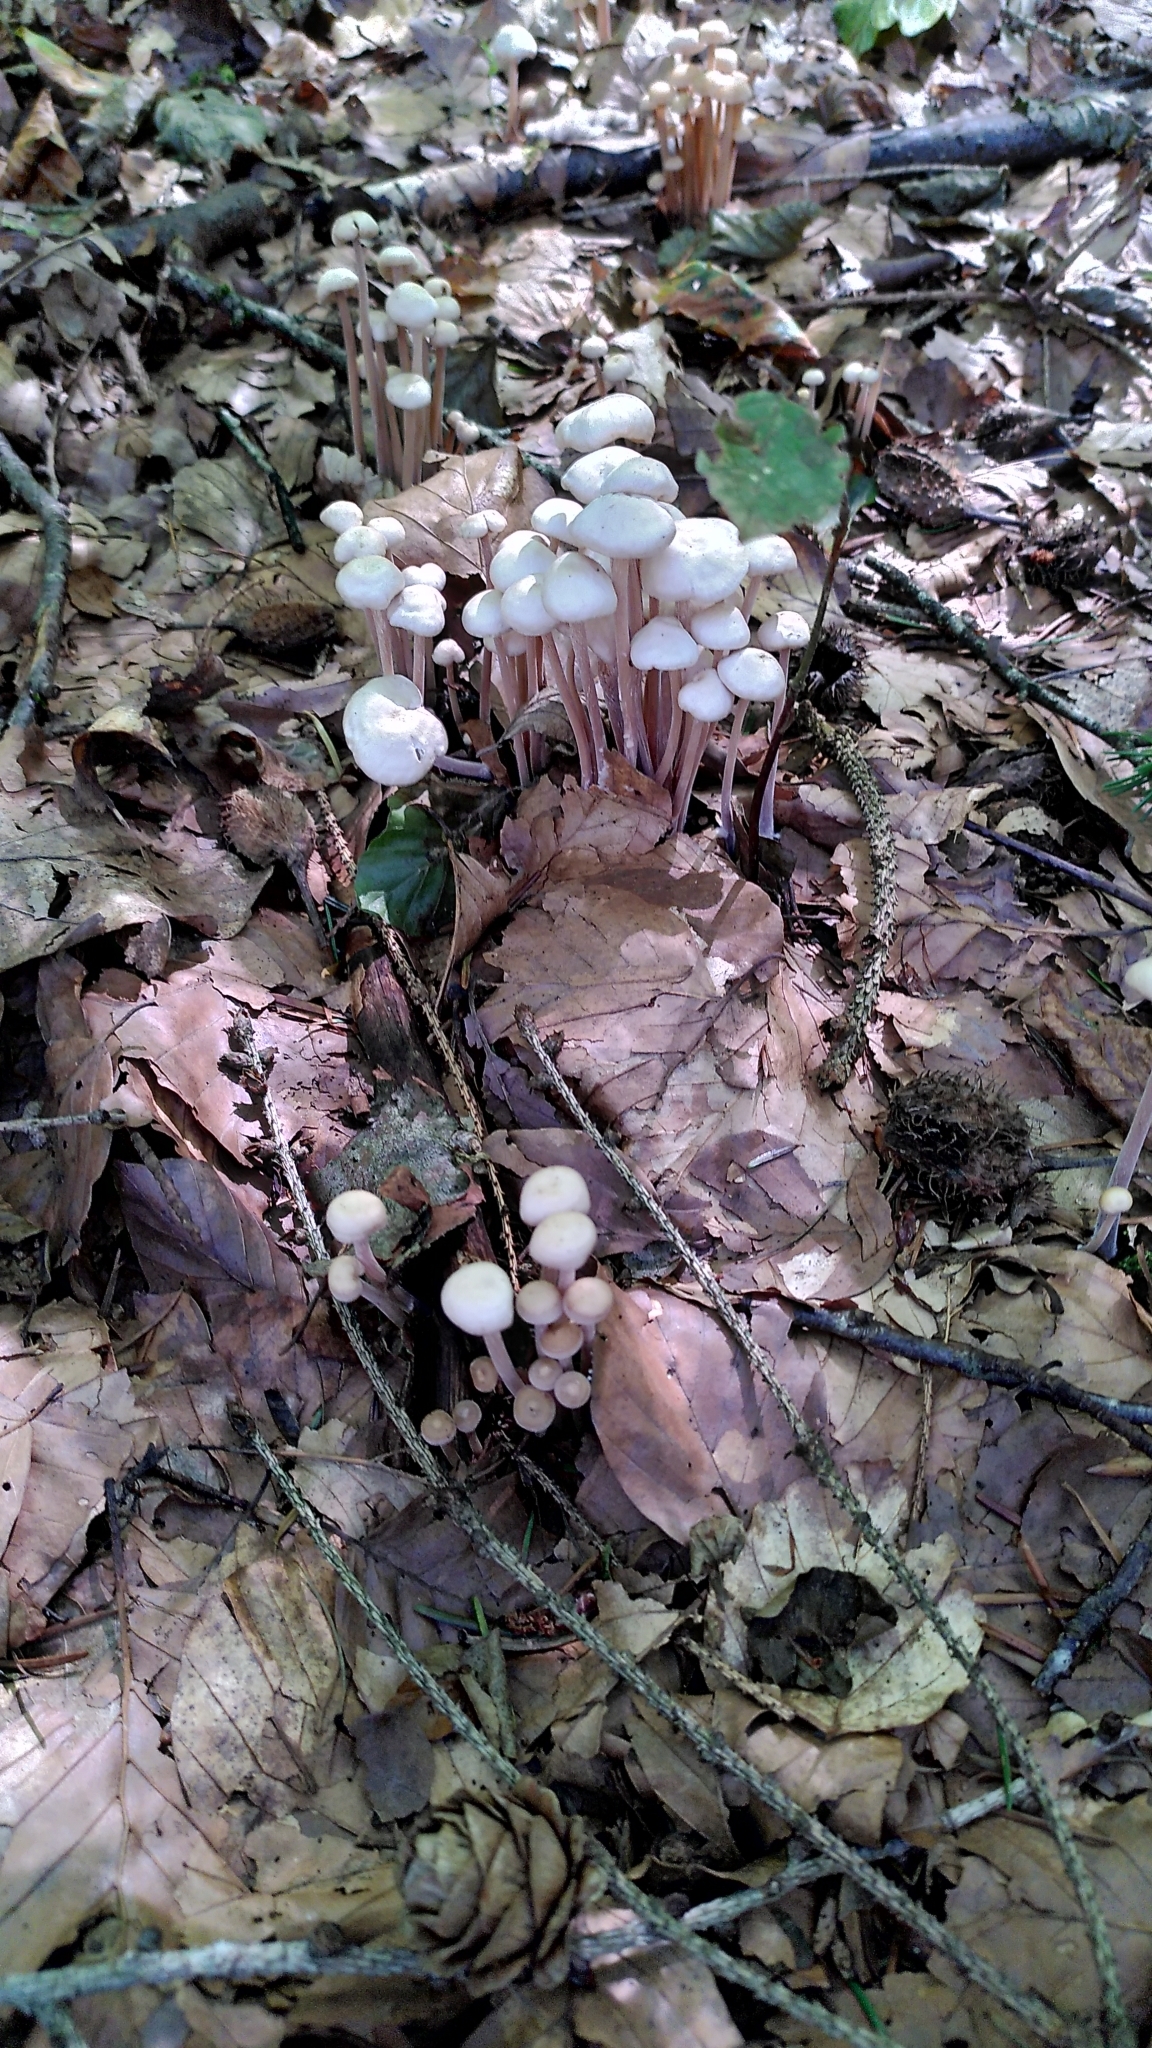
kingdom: Fungi
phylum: Basidiomycota
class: Agaricomycetes
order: Agaricales
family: Omphalotaceae
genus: Collybiopsis
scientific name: Collybiopsis confluens
